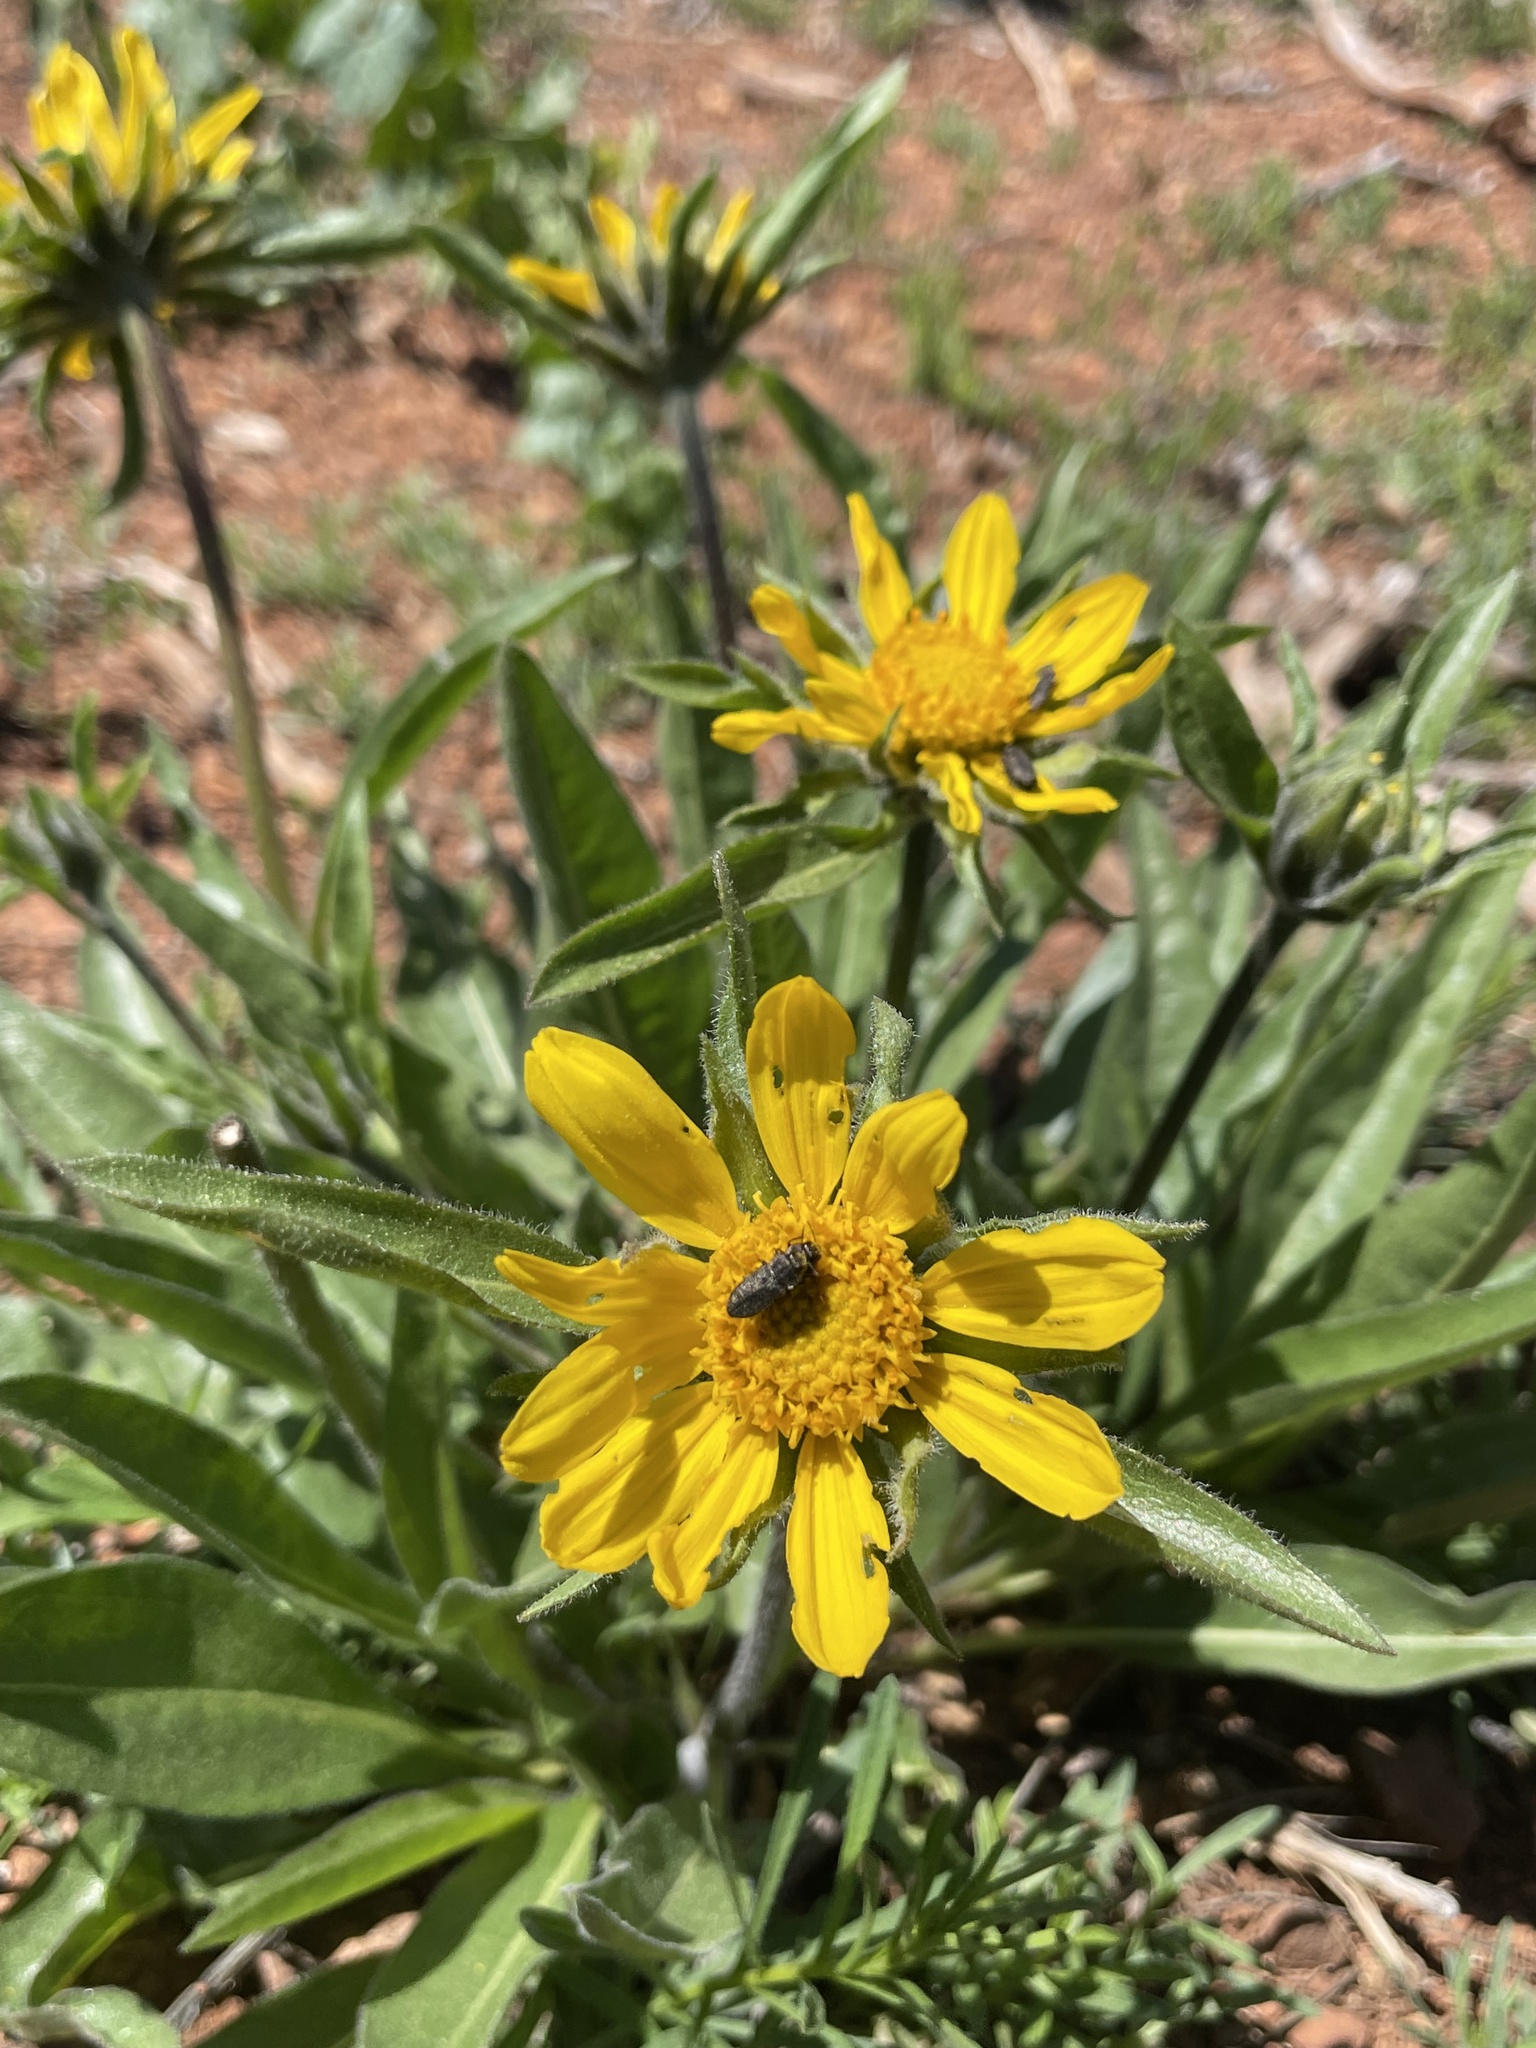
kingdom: Plantae
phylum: Tracheophyta
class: Magnoliopsida
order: Asterales
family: Asteraceae
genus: Helianthella
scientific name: Helianthella castanea
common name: Diablo helianthella
